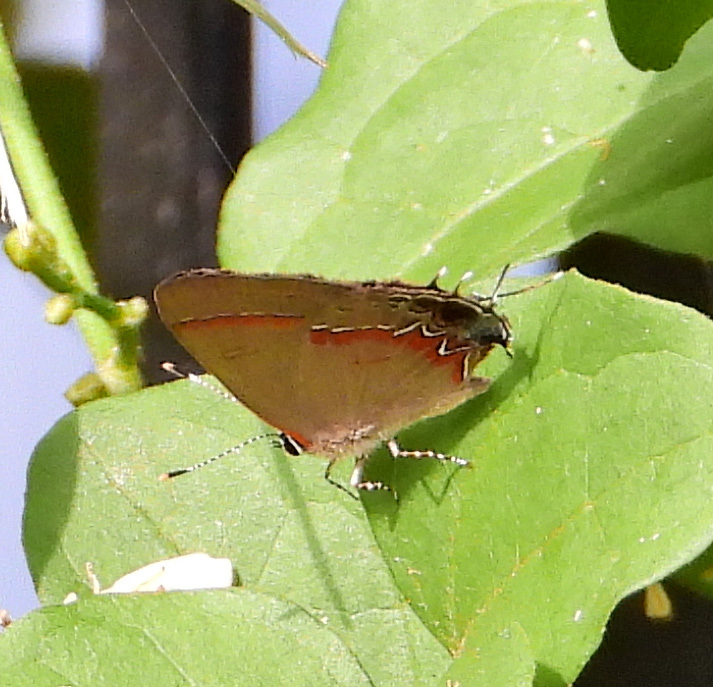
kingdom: Animalia
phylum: Arthropoda
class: Insecta
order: Lepidoptera
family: Lycaenidae
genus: Calycopis
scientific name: Calycopis cecrops
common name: Red-banded hairstreak
